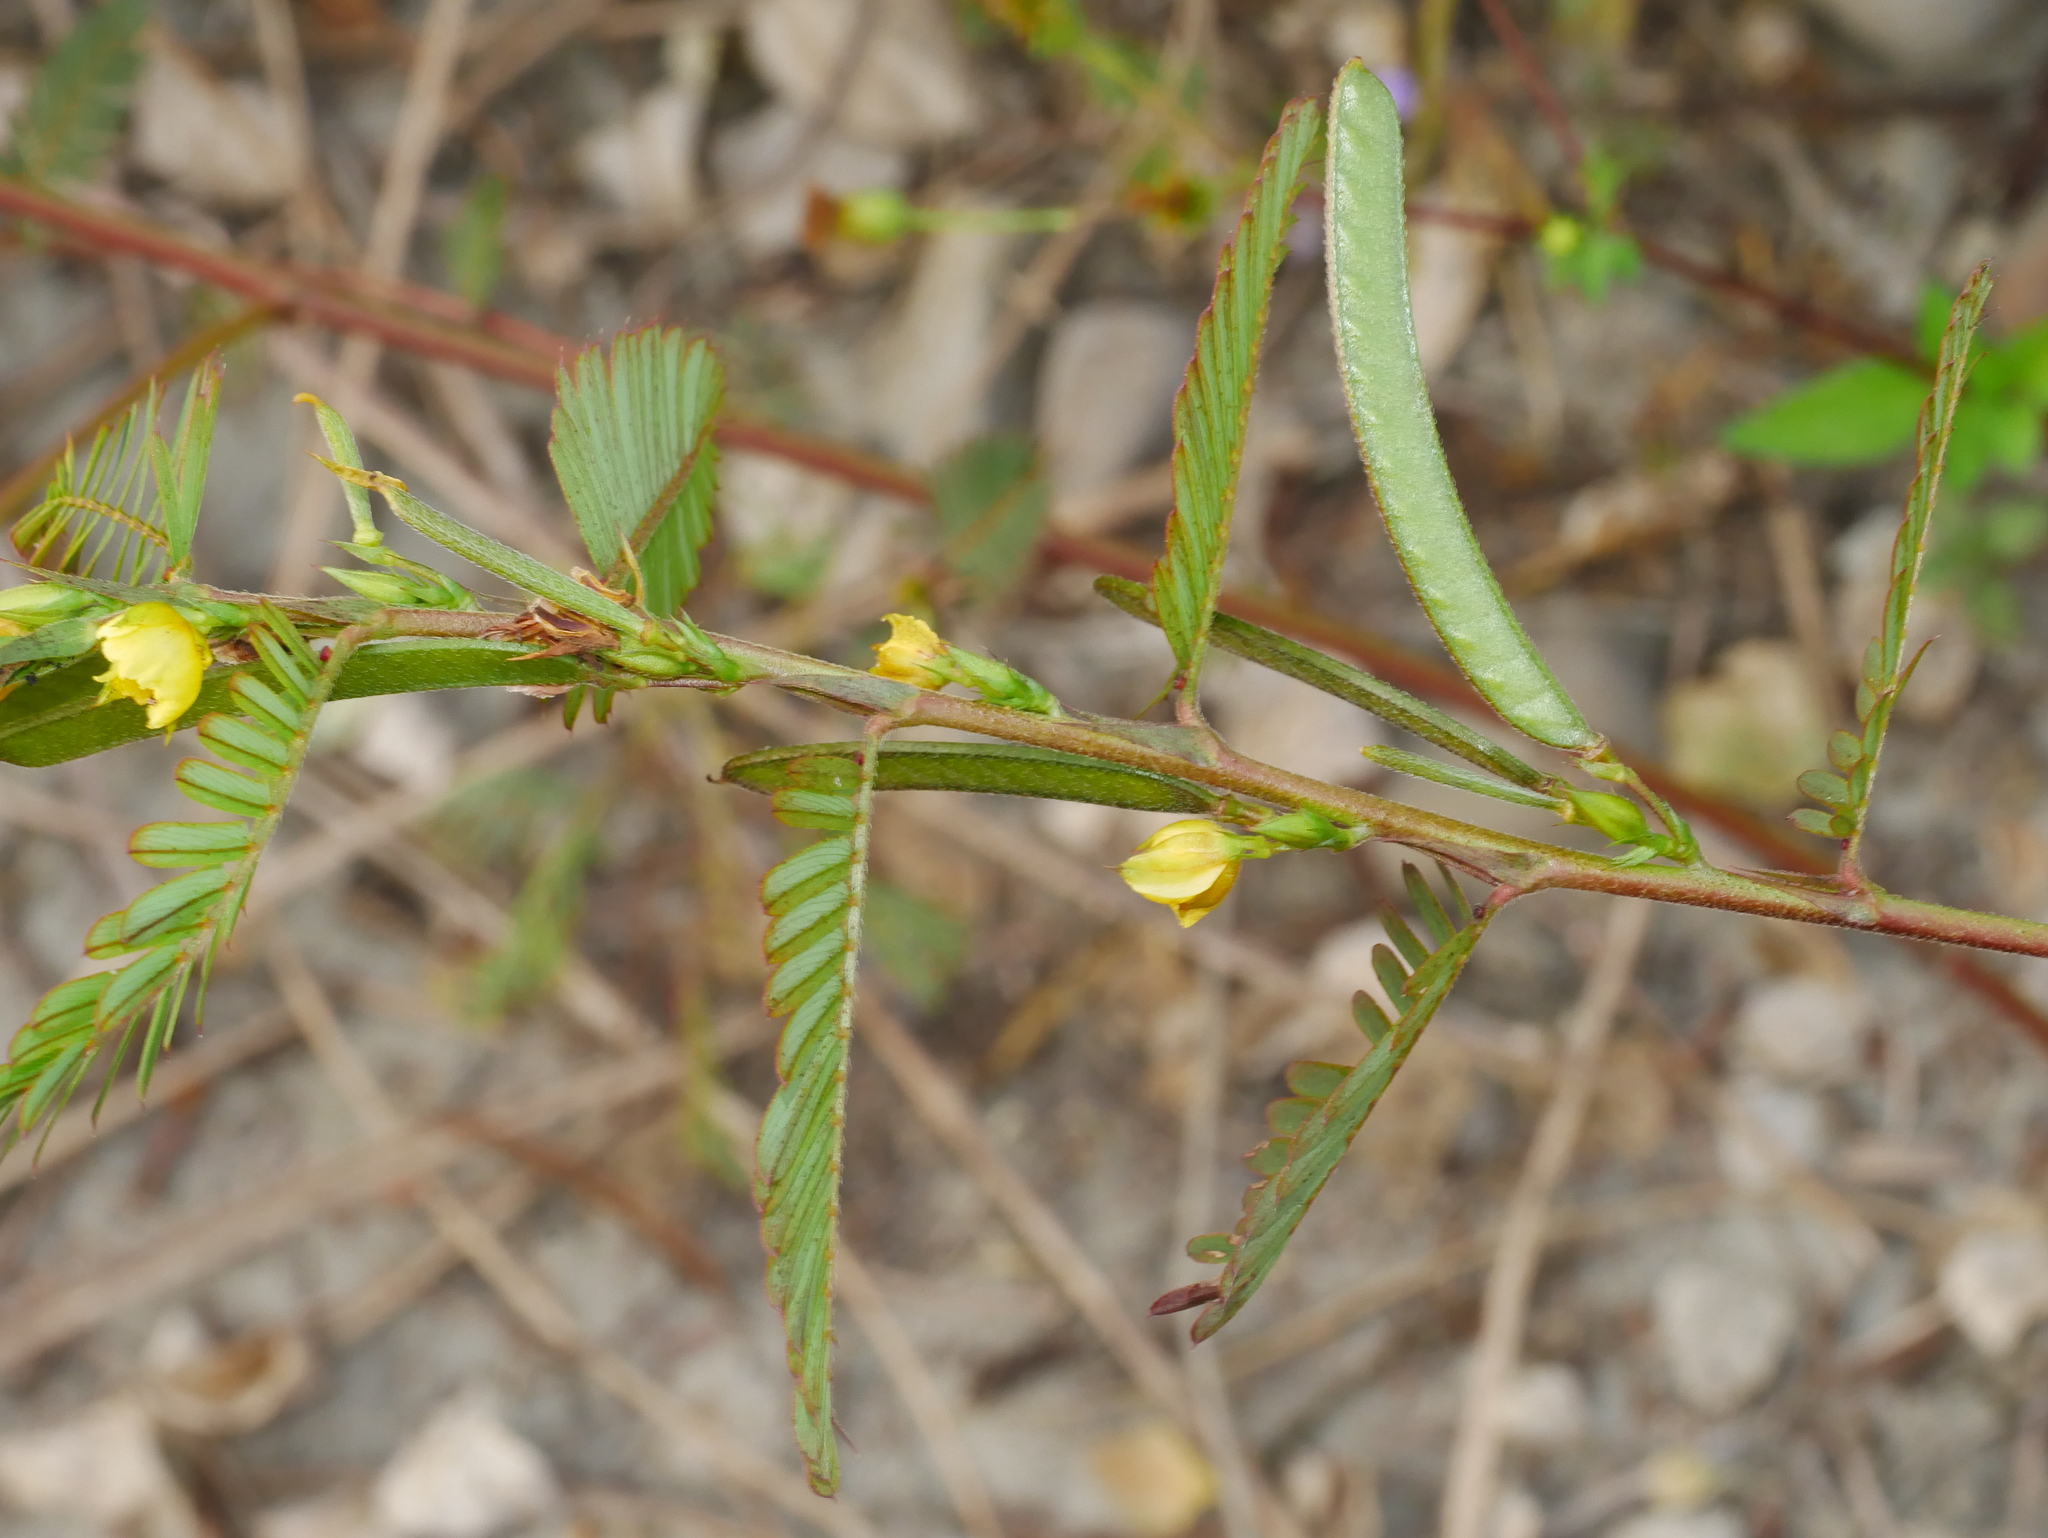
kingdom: Plantae
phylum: Tracheophyta
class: Magnoliopsida
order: Fabales
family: Fabaceae
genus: Chamaecrista
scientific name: Chamaecrista nictitans
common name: Sensitive cassia
